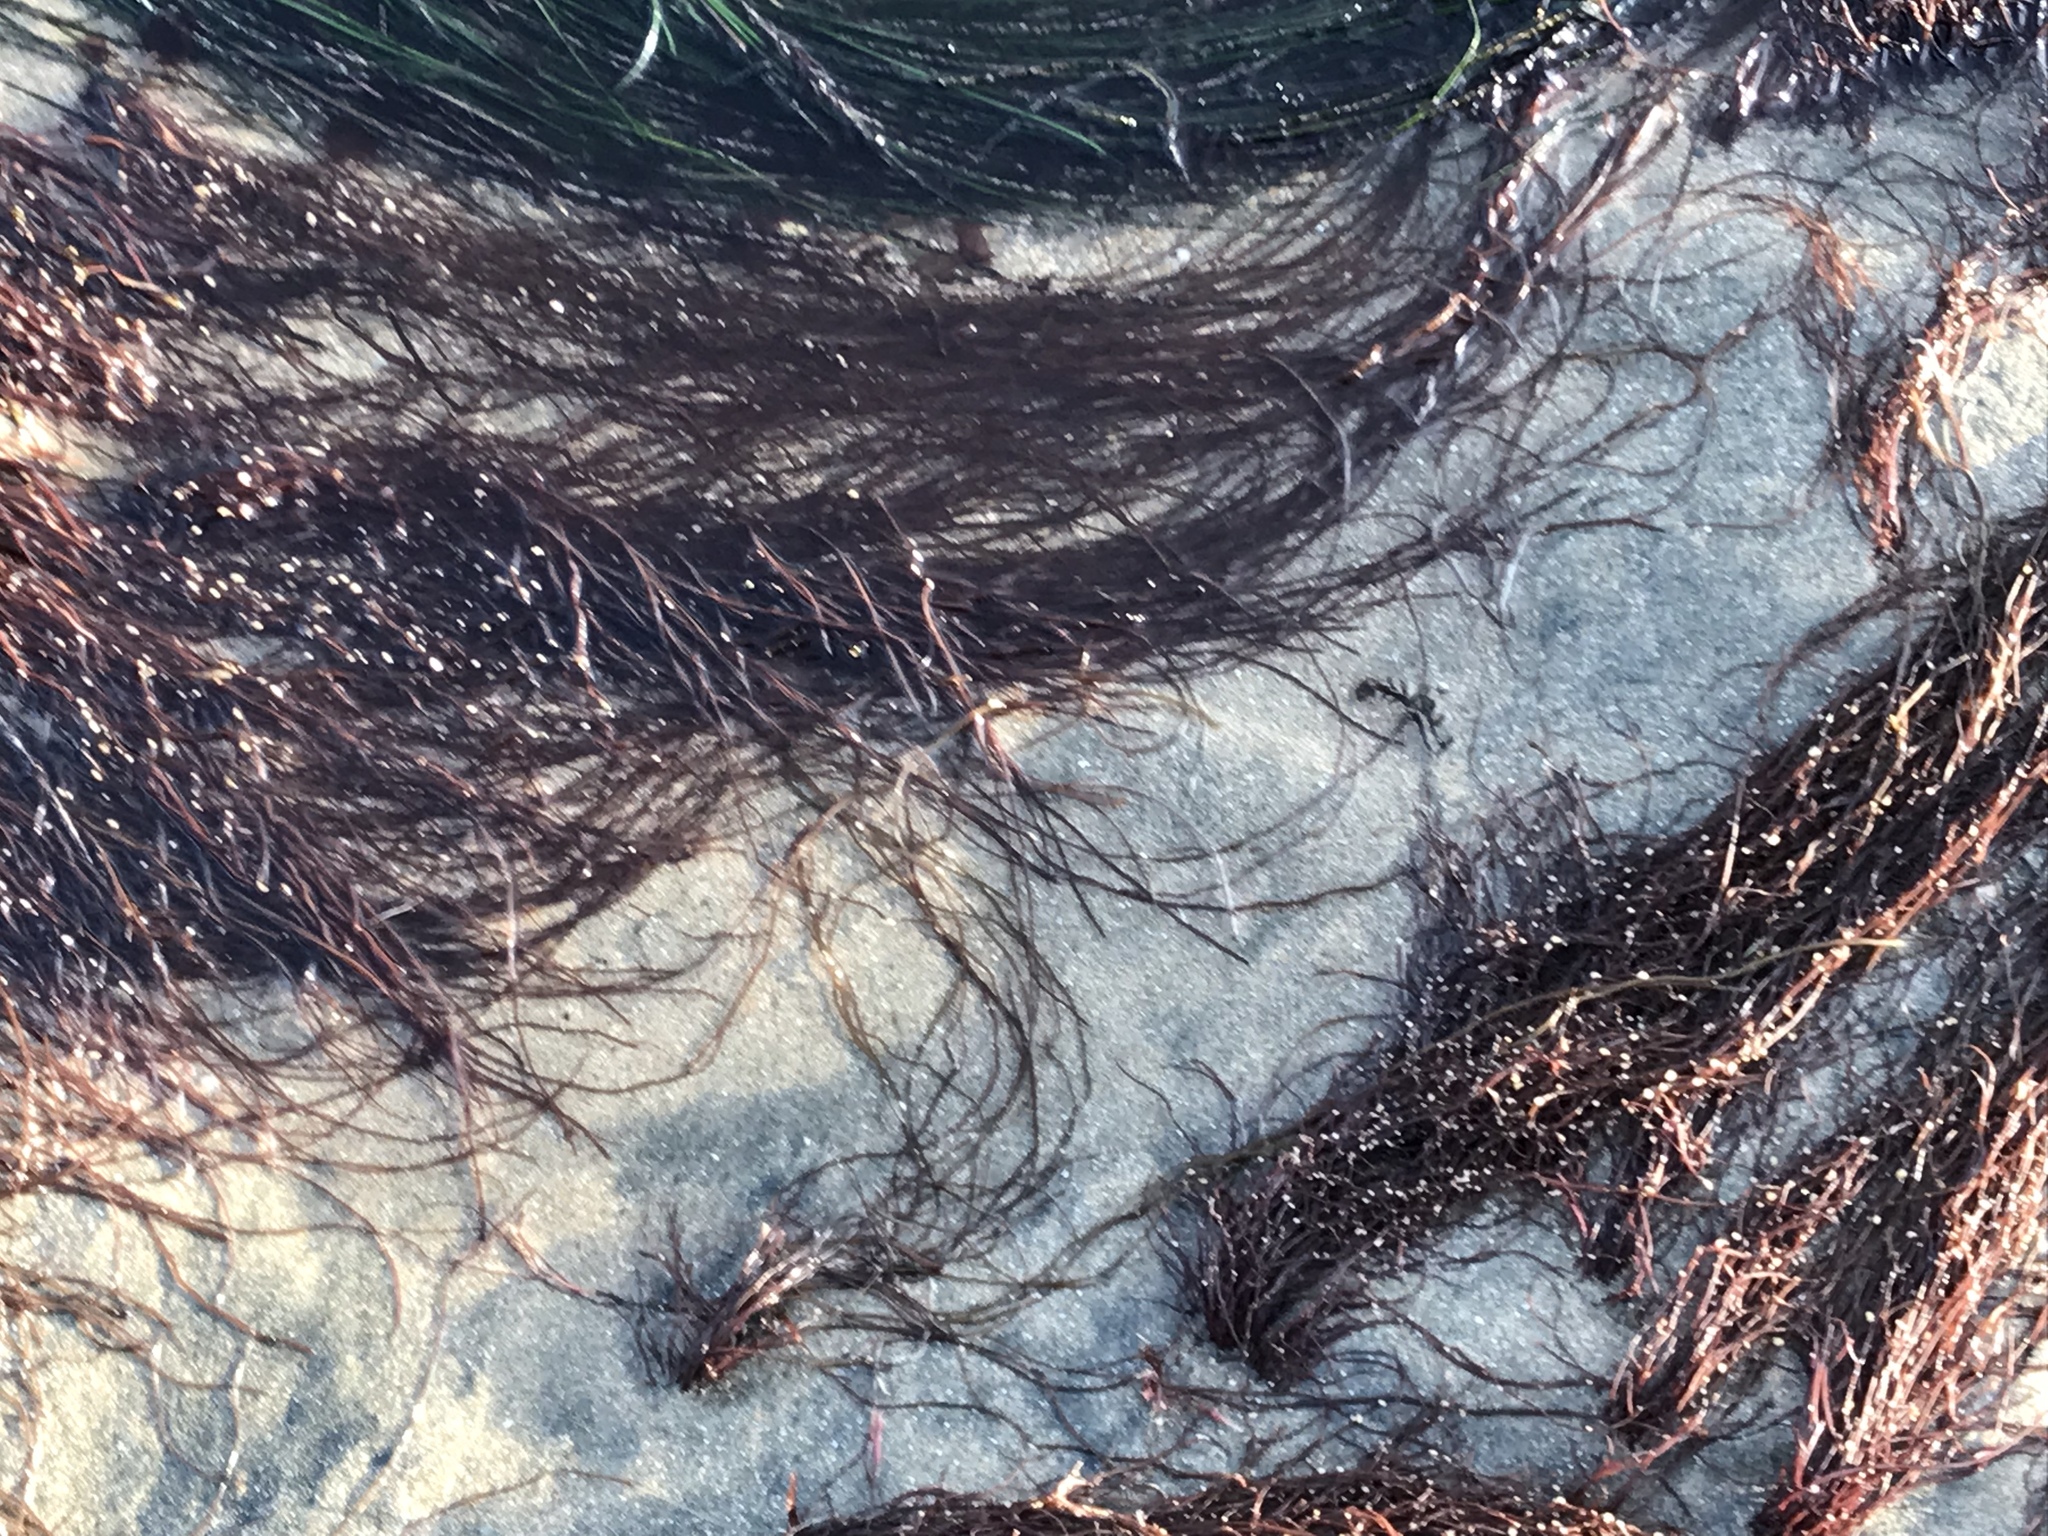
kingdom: Plantae
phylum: Rhodophyta
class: Florideophyceae
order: Gracilariales
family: Gracilariaceae
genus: Gracilariopsis
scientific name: Gracilariopsis andersonii
